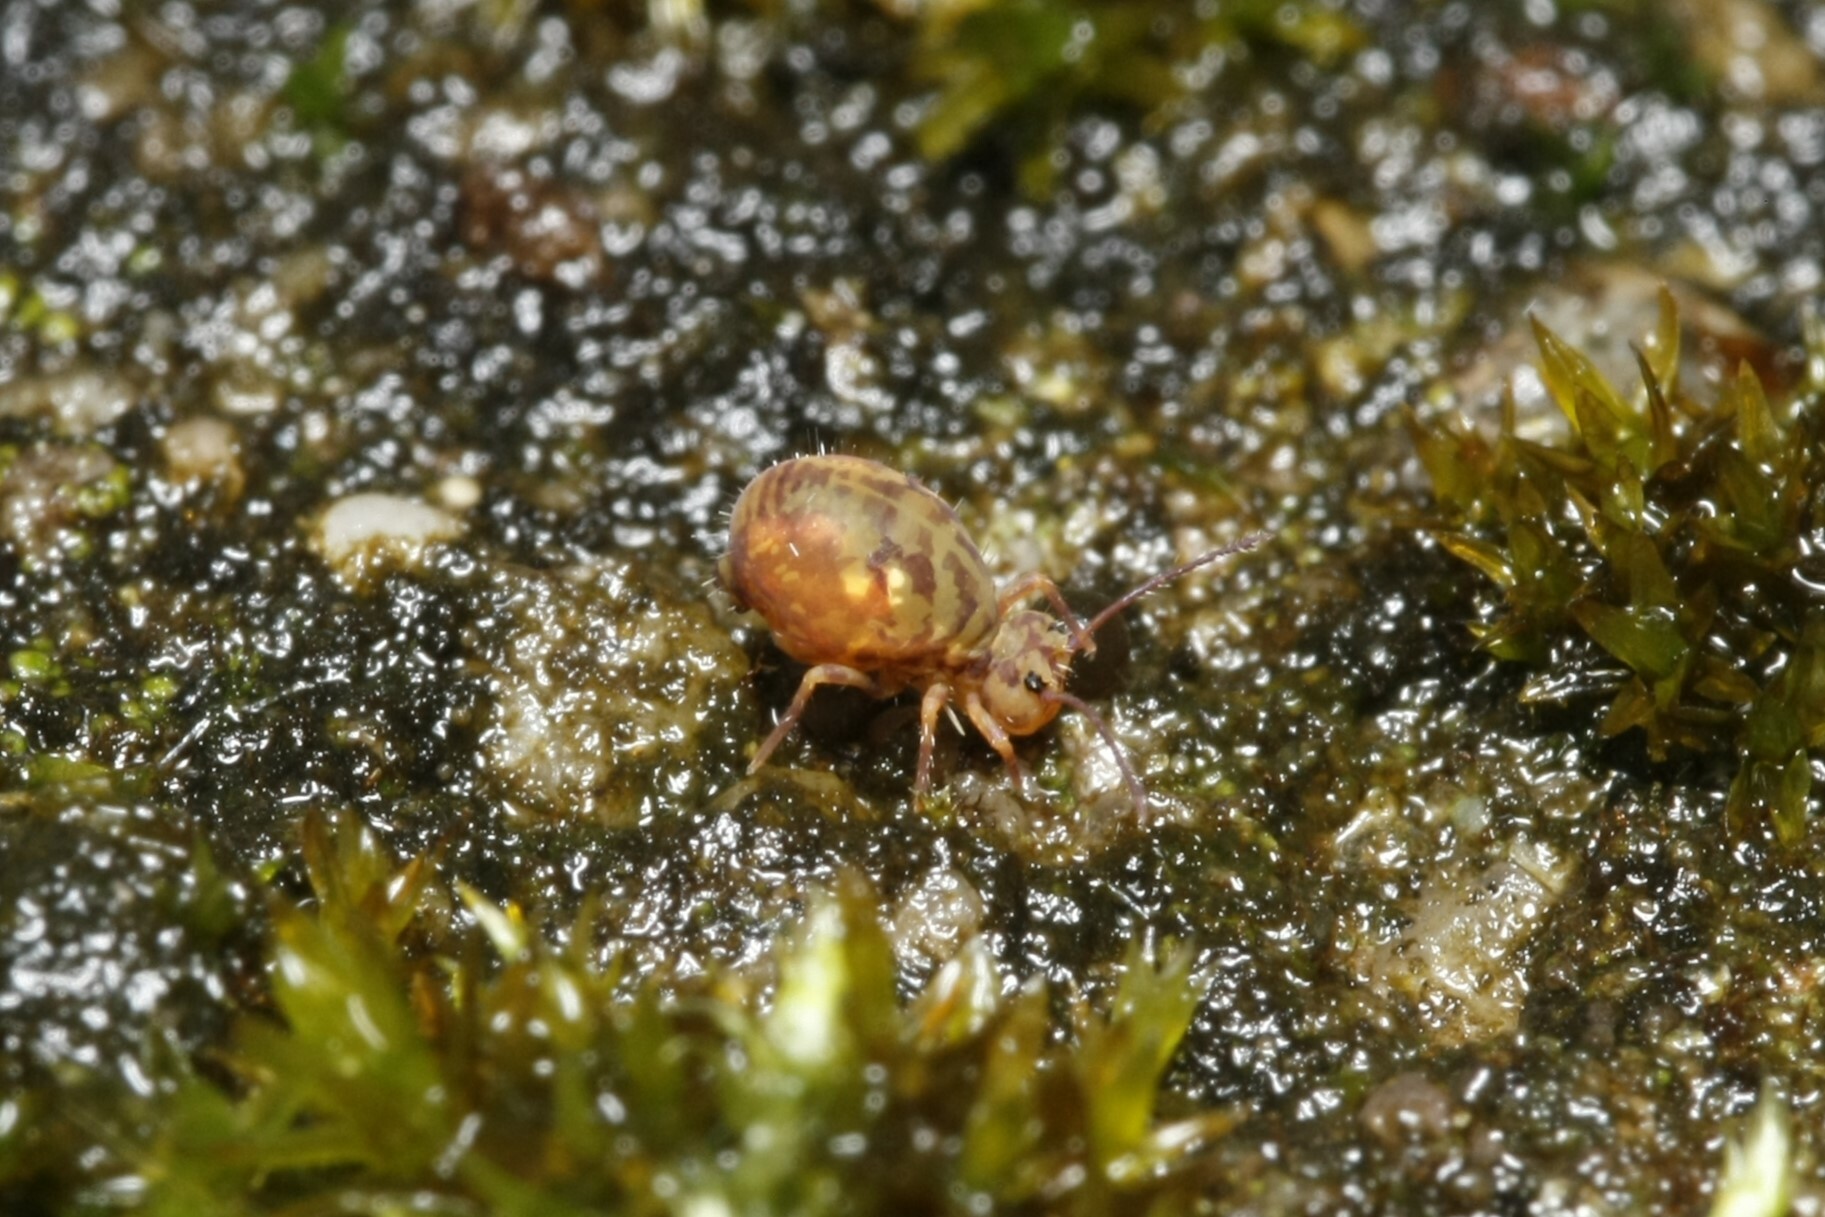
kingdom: Animalia
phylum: Arthropoda
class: Collembola
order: Symphypleona
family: Dicyrtomidae
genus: Dicyrtomina
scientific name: Dicyrtomina saundersi
